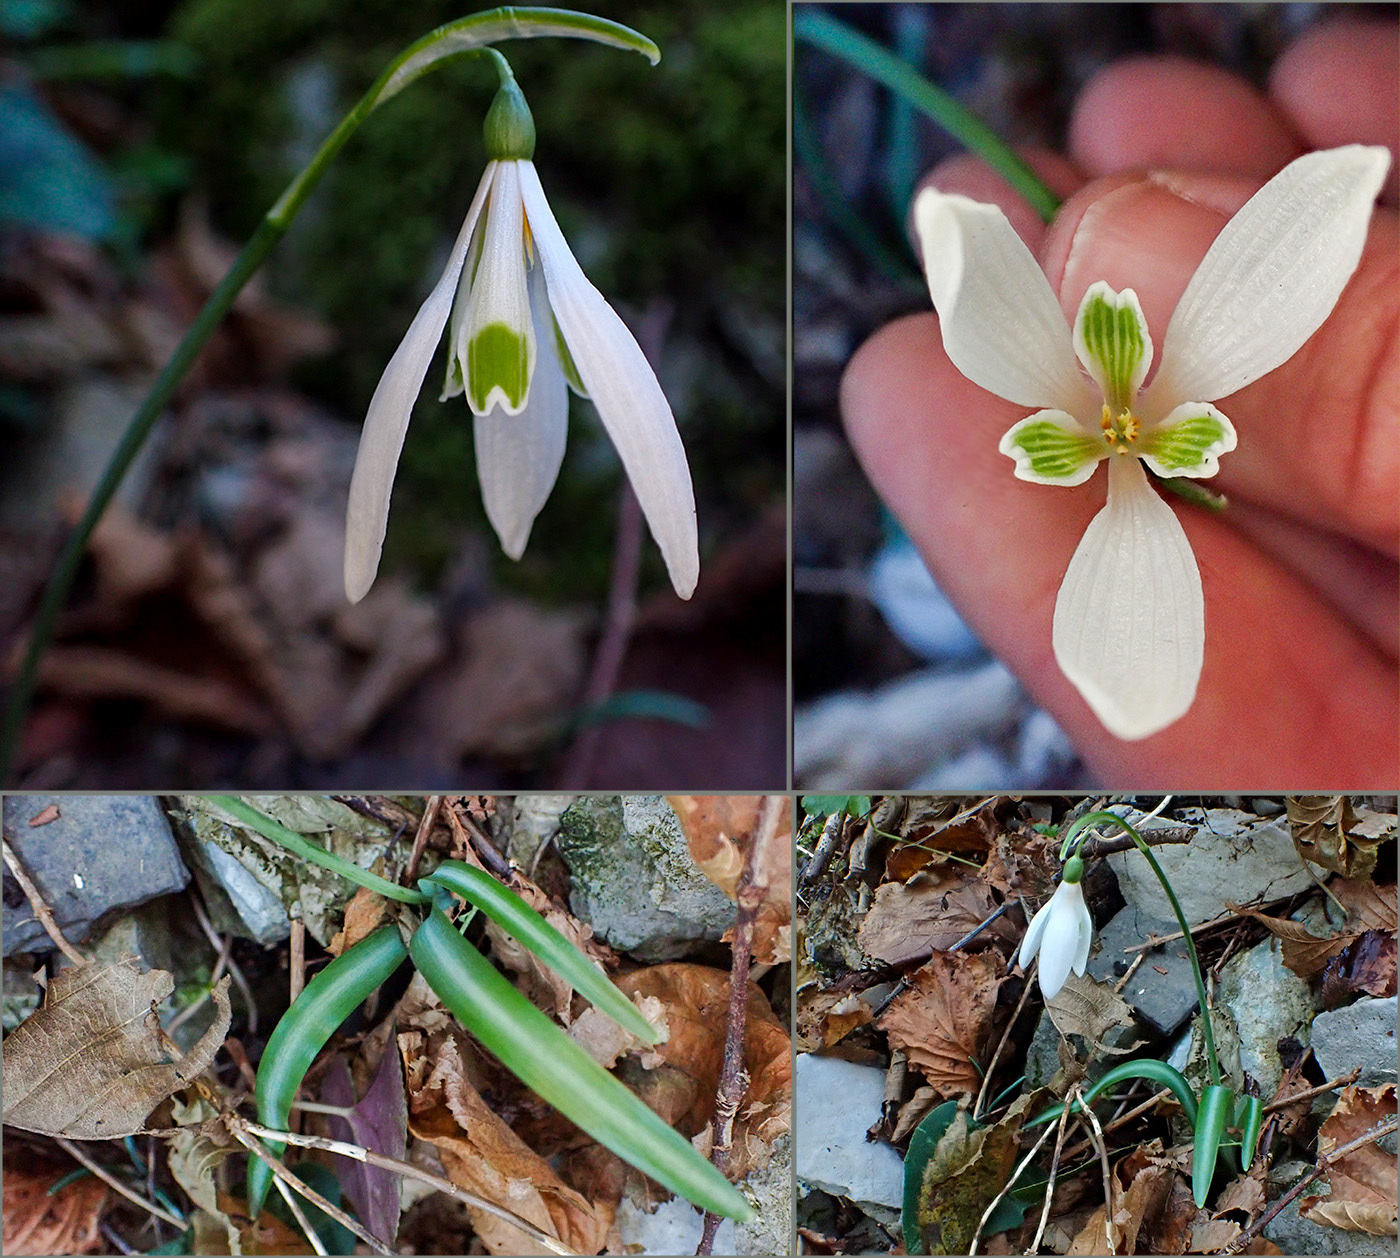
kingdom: Plantae
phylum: Tracheophyta
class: Liliopsida
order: Asparagales
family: Amaryllidaceae
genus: Galanthus
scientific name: Galanthus reginae-olgae
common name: Queen olga's snowdrop
